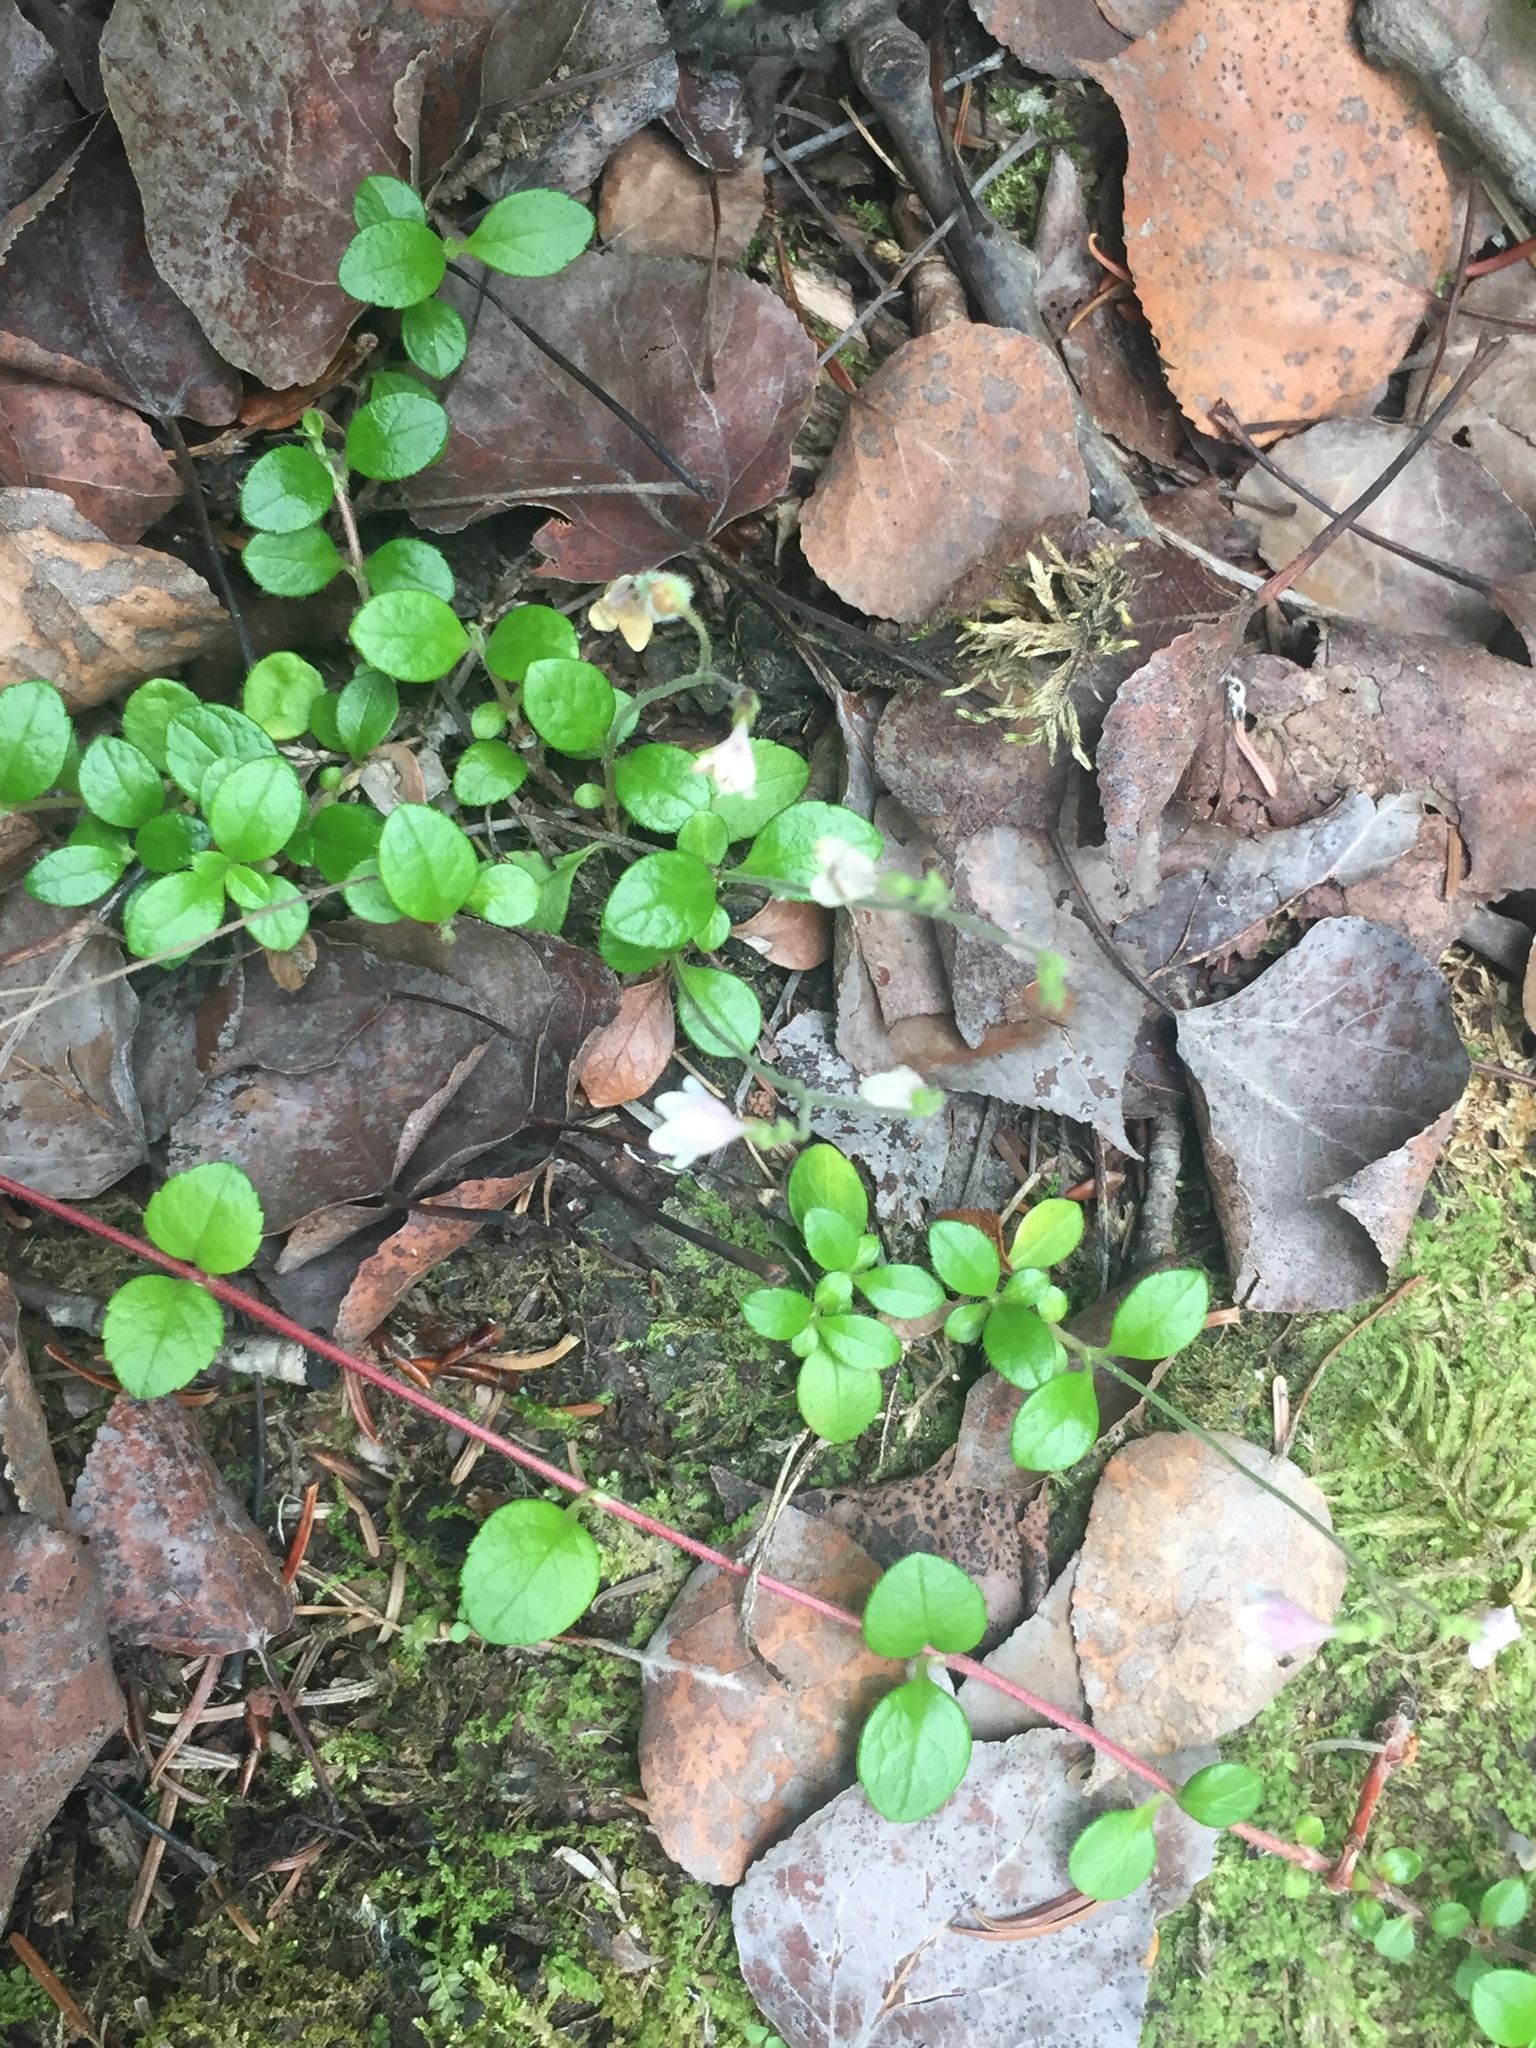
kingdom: Plantae
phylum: Tracheophyta
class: Magnoliopsida
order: Dipsacales
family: Caprifoliaceae
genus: Linnaea
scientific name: Linnaea borealis
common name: Twinflower
